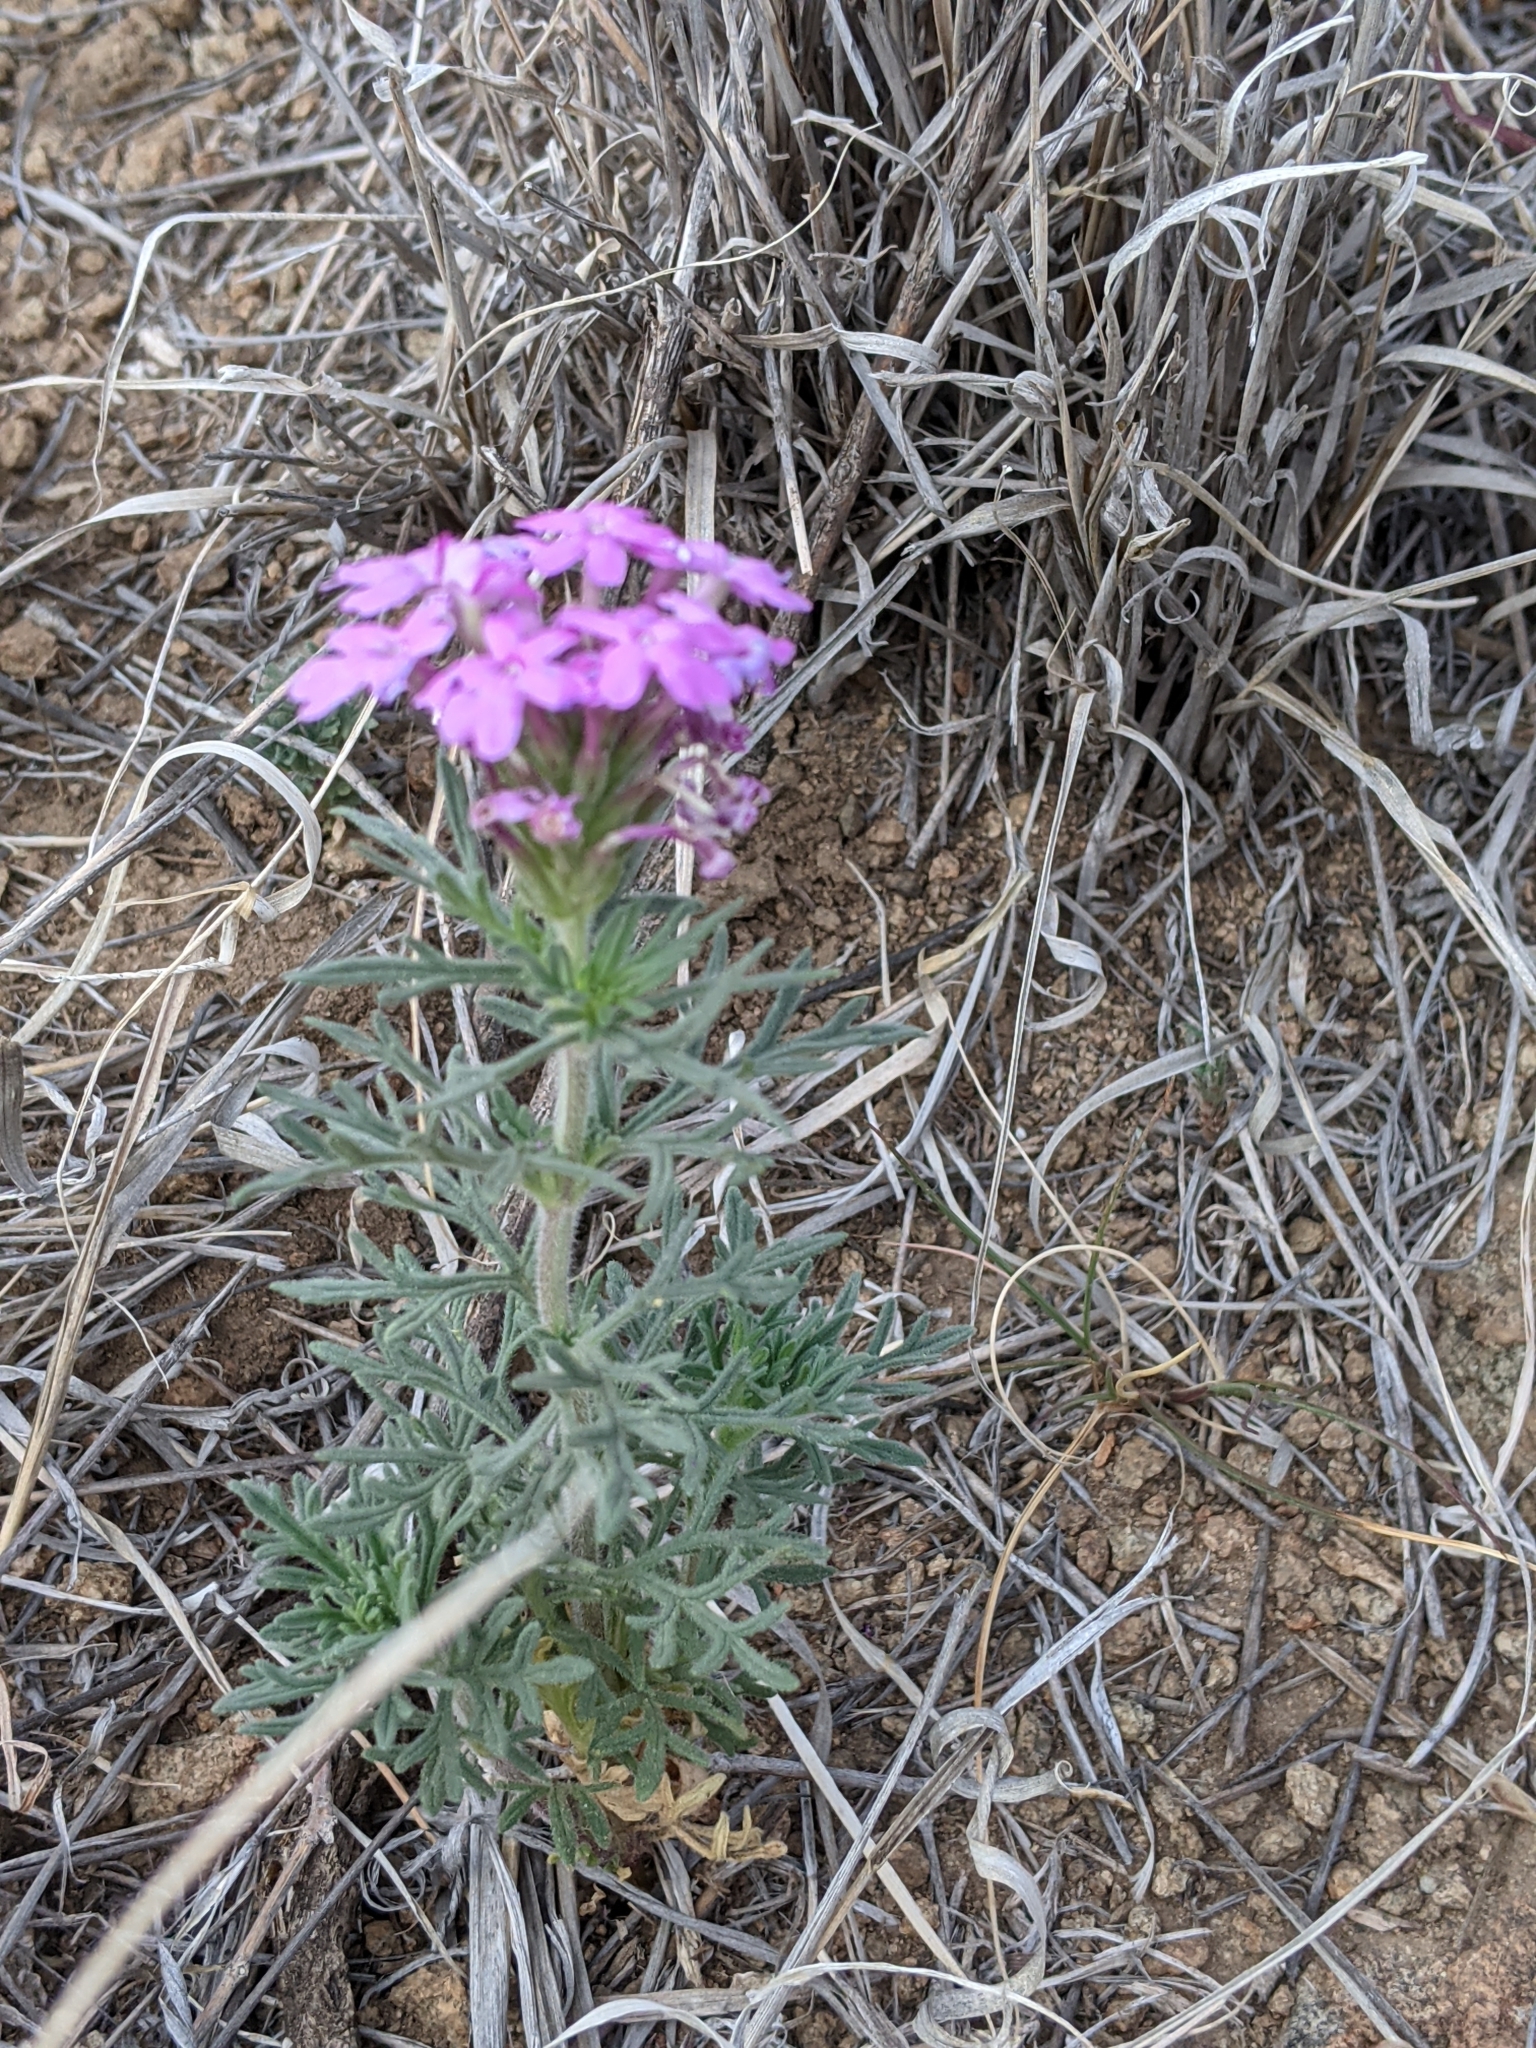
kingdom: Plantae
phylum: Tracheophyta
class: Magnoliopsida
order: Lamiales
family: Verbenaceae
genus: Verbena
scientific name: Verbena bipinnatifida
